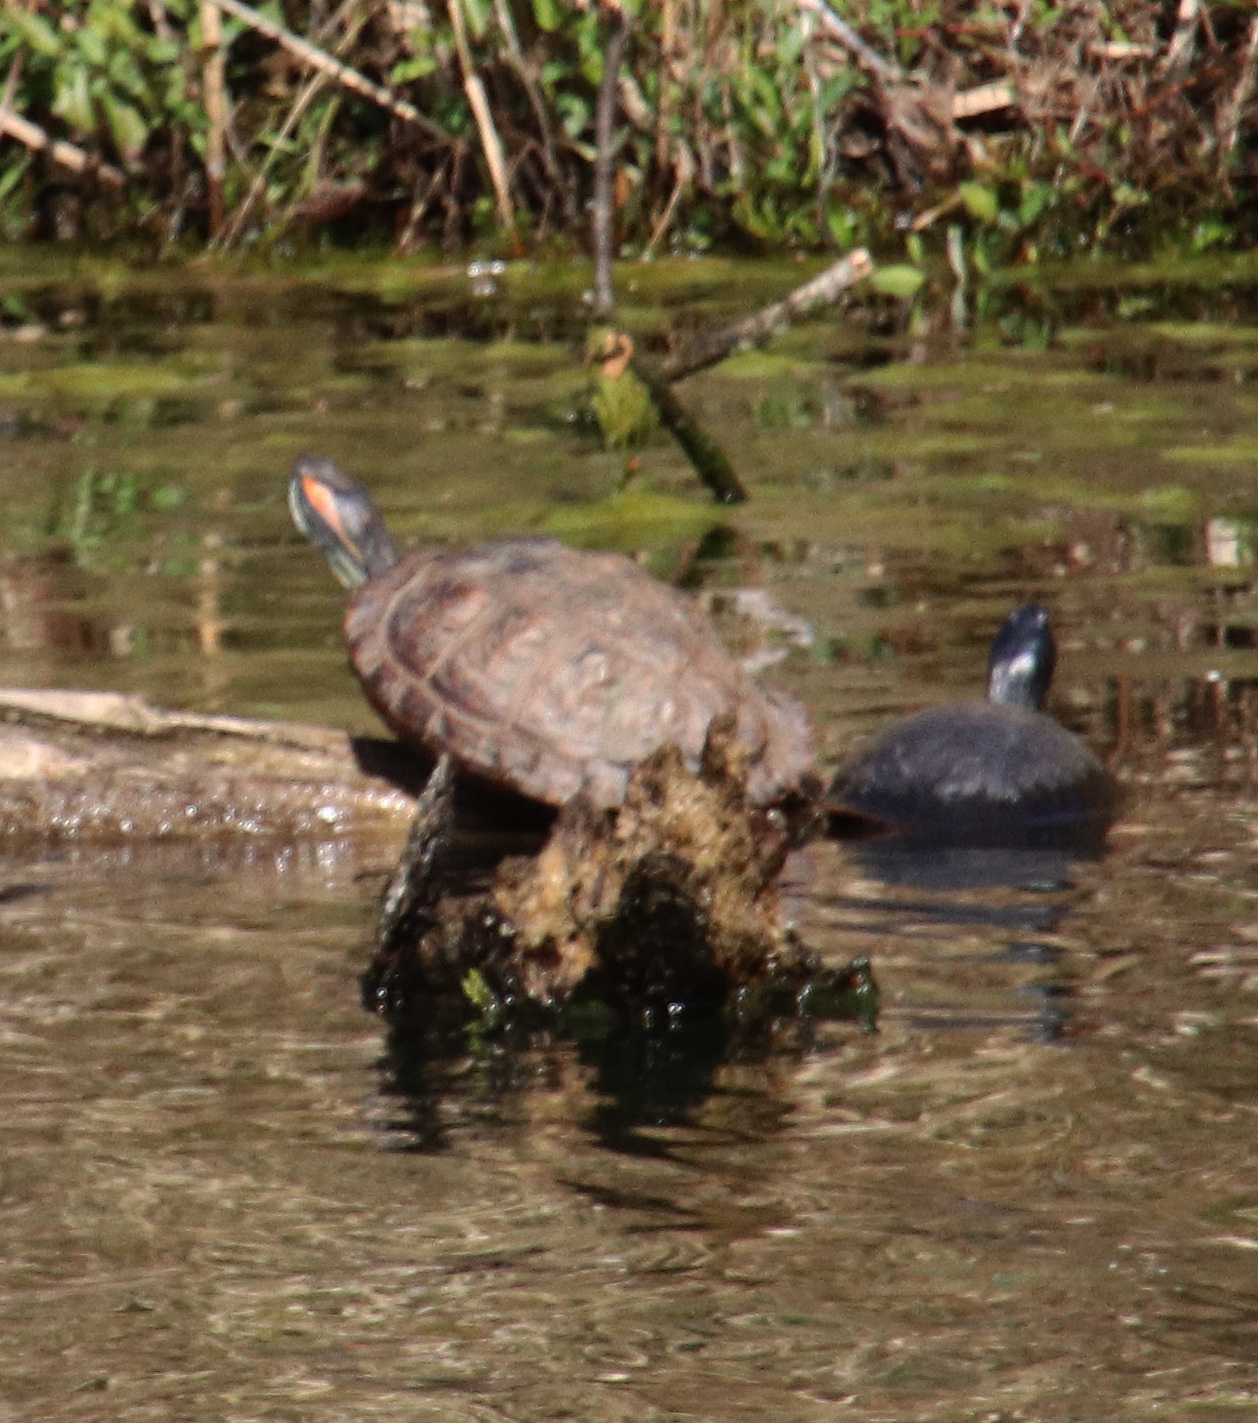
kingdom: Animalia
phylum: Chordata
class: Testudines
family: Emydidae
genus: Trachemys
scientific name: Trachemys scripta
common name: Slider
